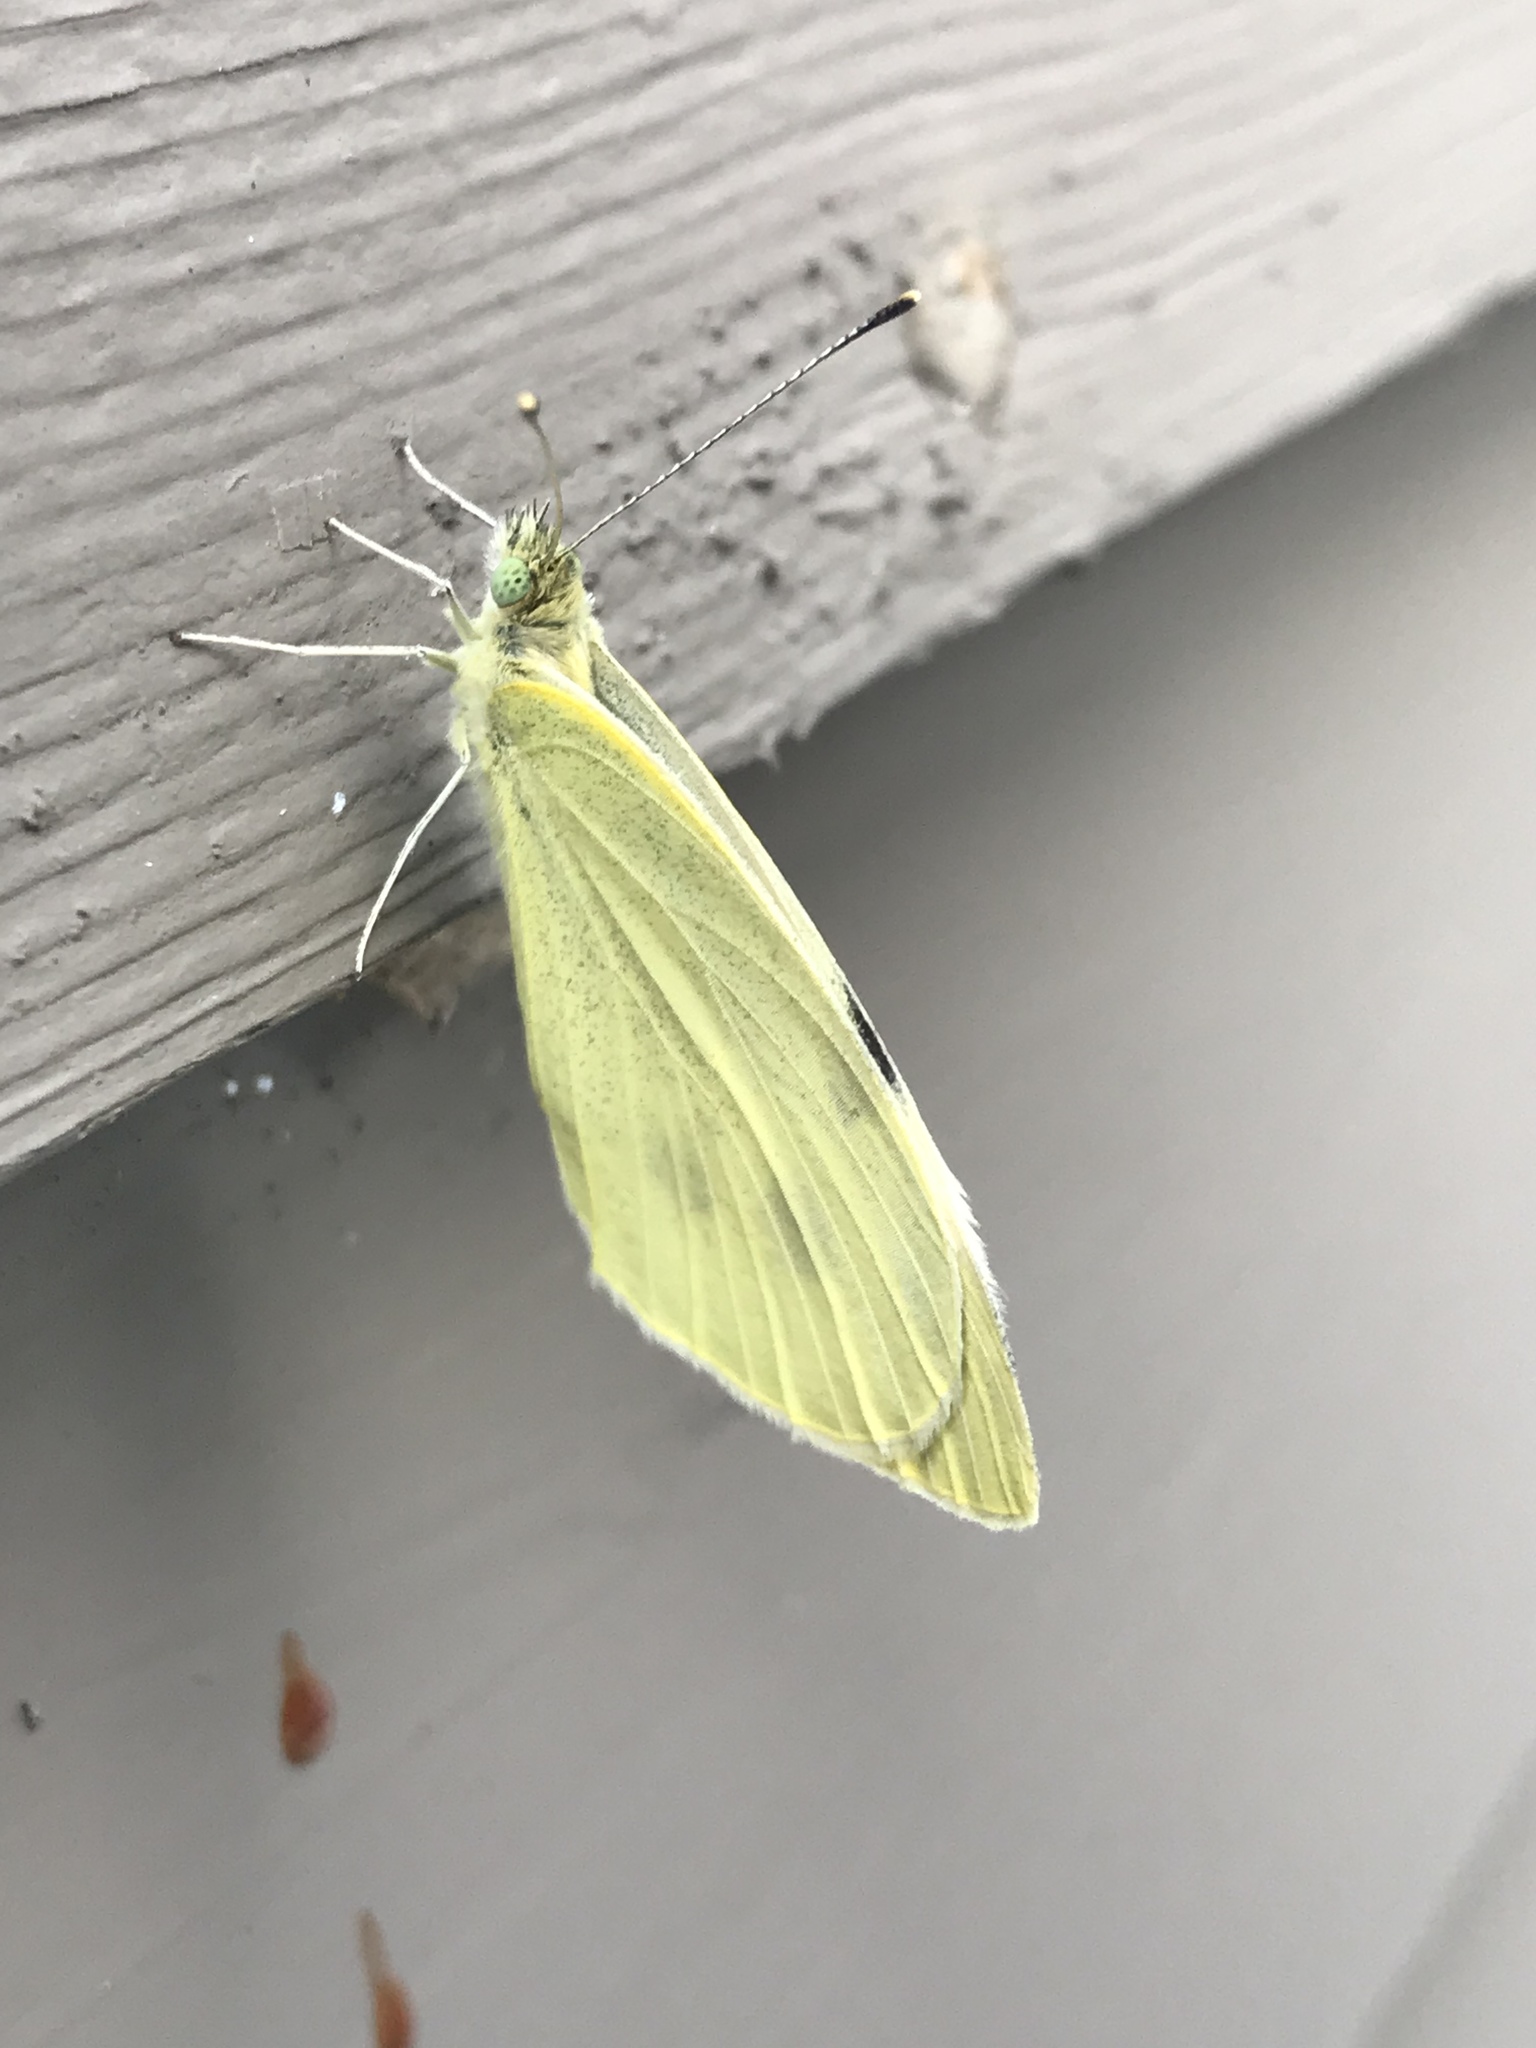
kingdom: Animalia
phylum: Arthropoda
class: Insecta
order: Lepidoptera
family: Pieridae
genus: Pieris
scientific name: Pieris rapae
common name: Small white
